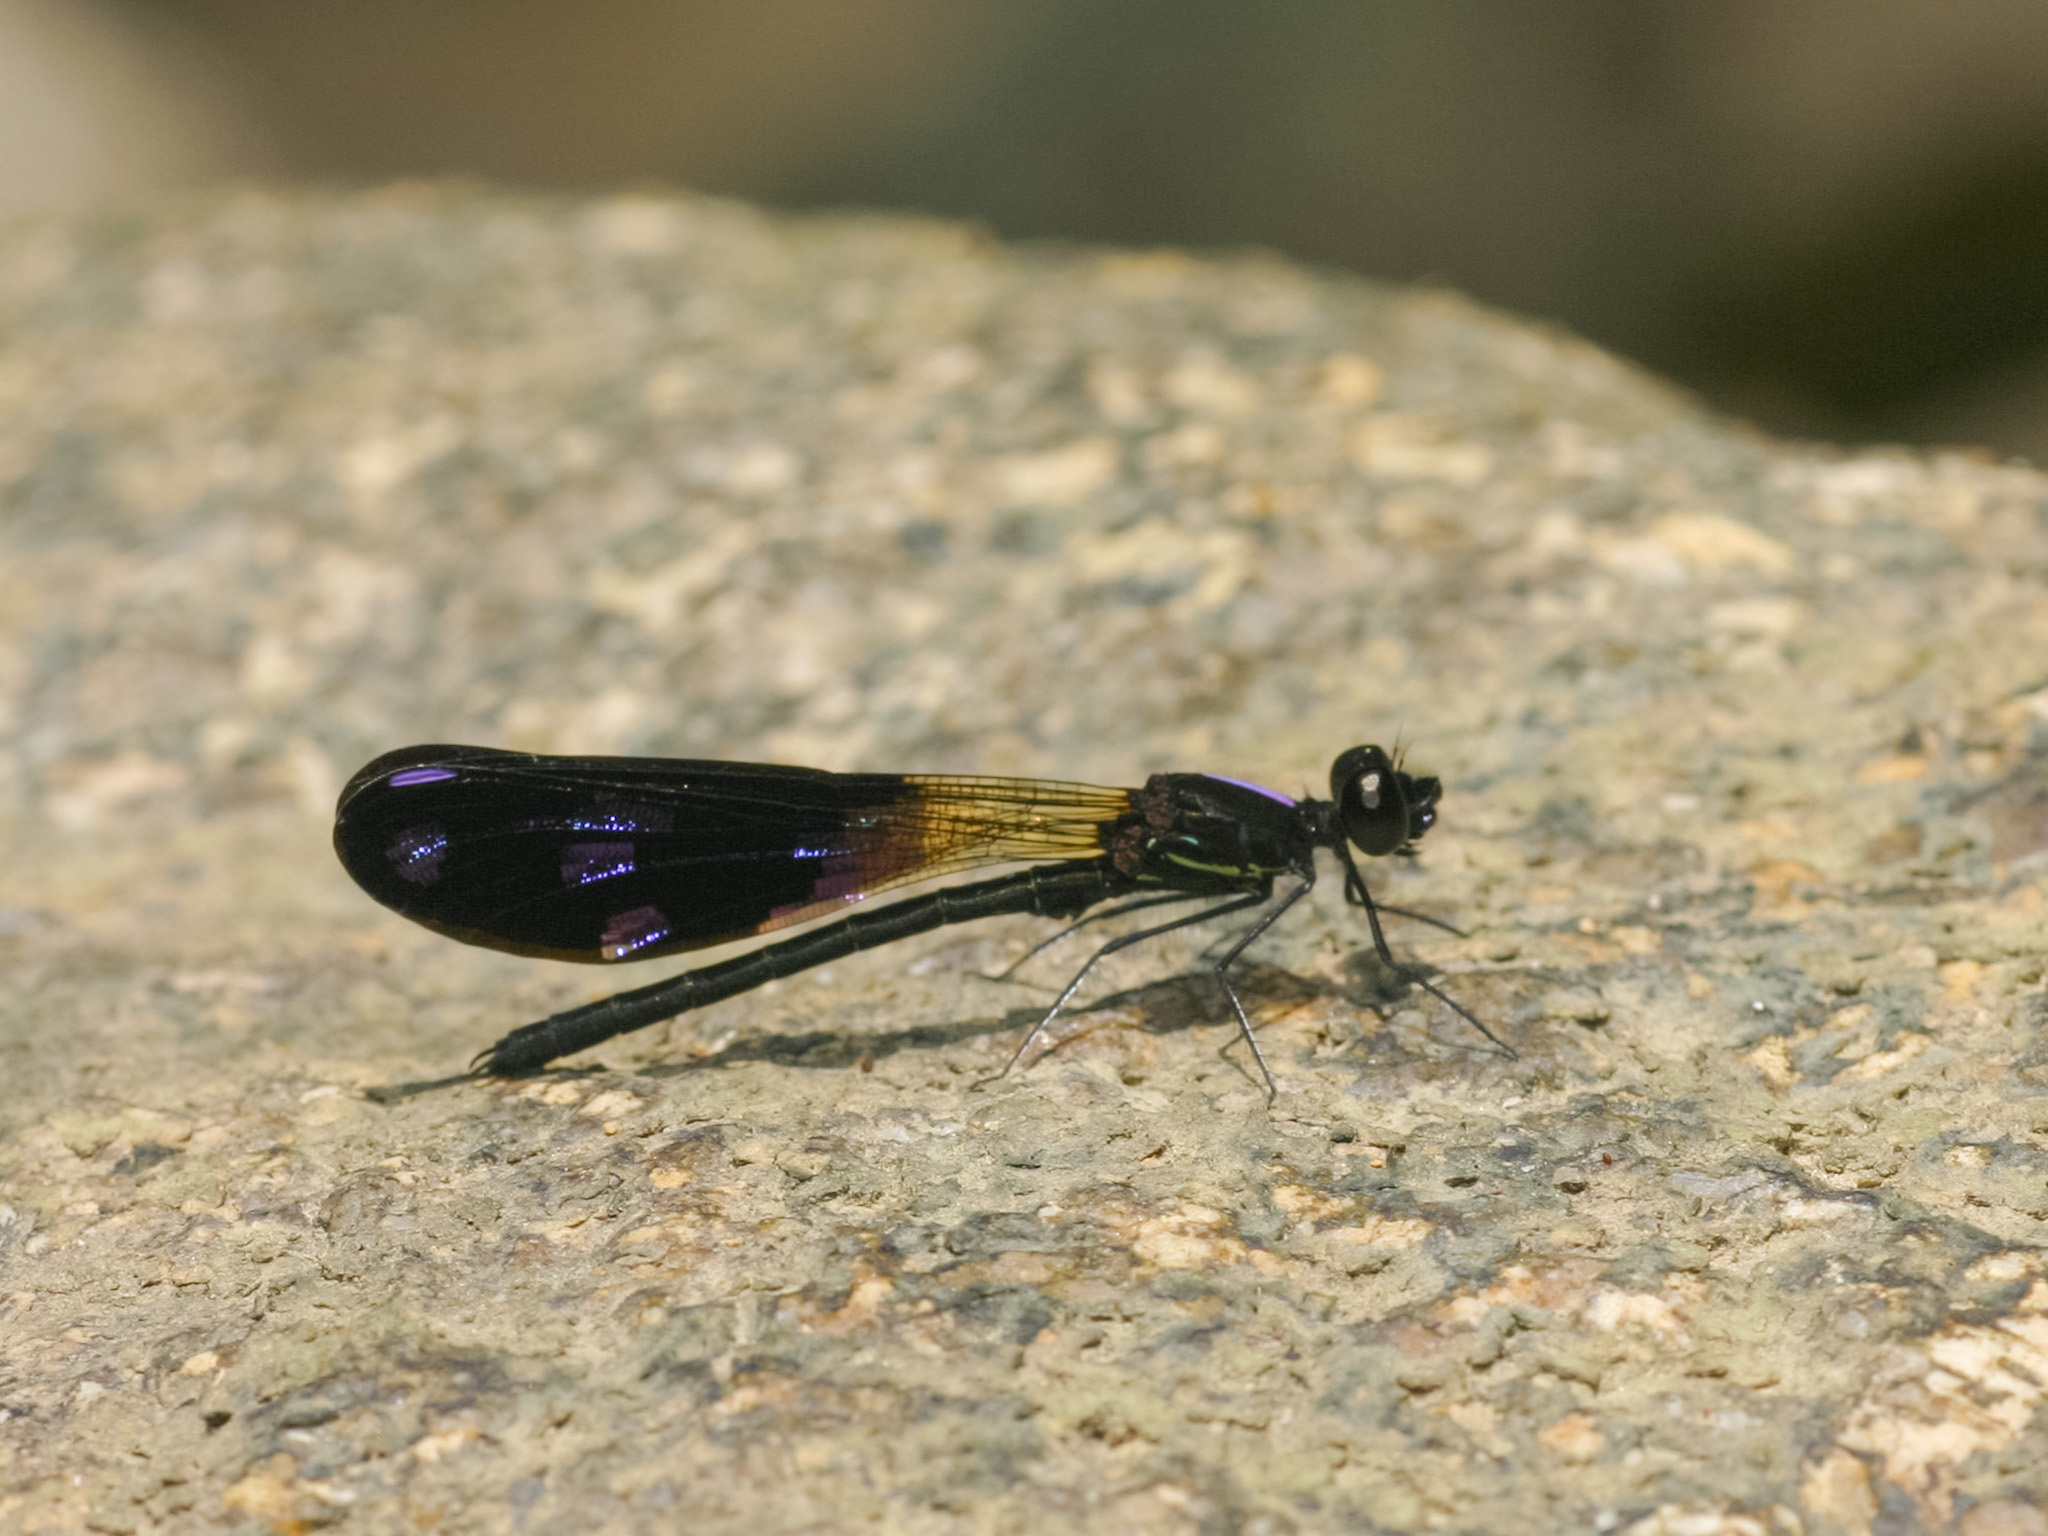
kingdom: Animalia
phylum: Arthropoda
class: Insecta
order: Odonata
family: Chlorocyphidae
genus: Aristocypha
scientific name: Aristocypha fenestrella
